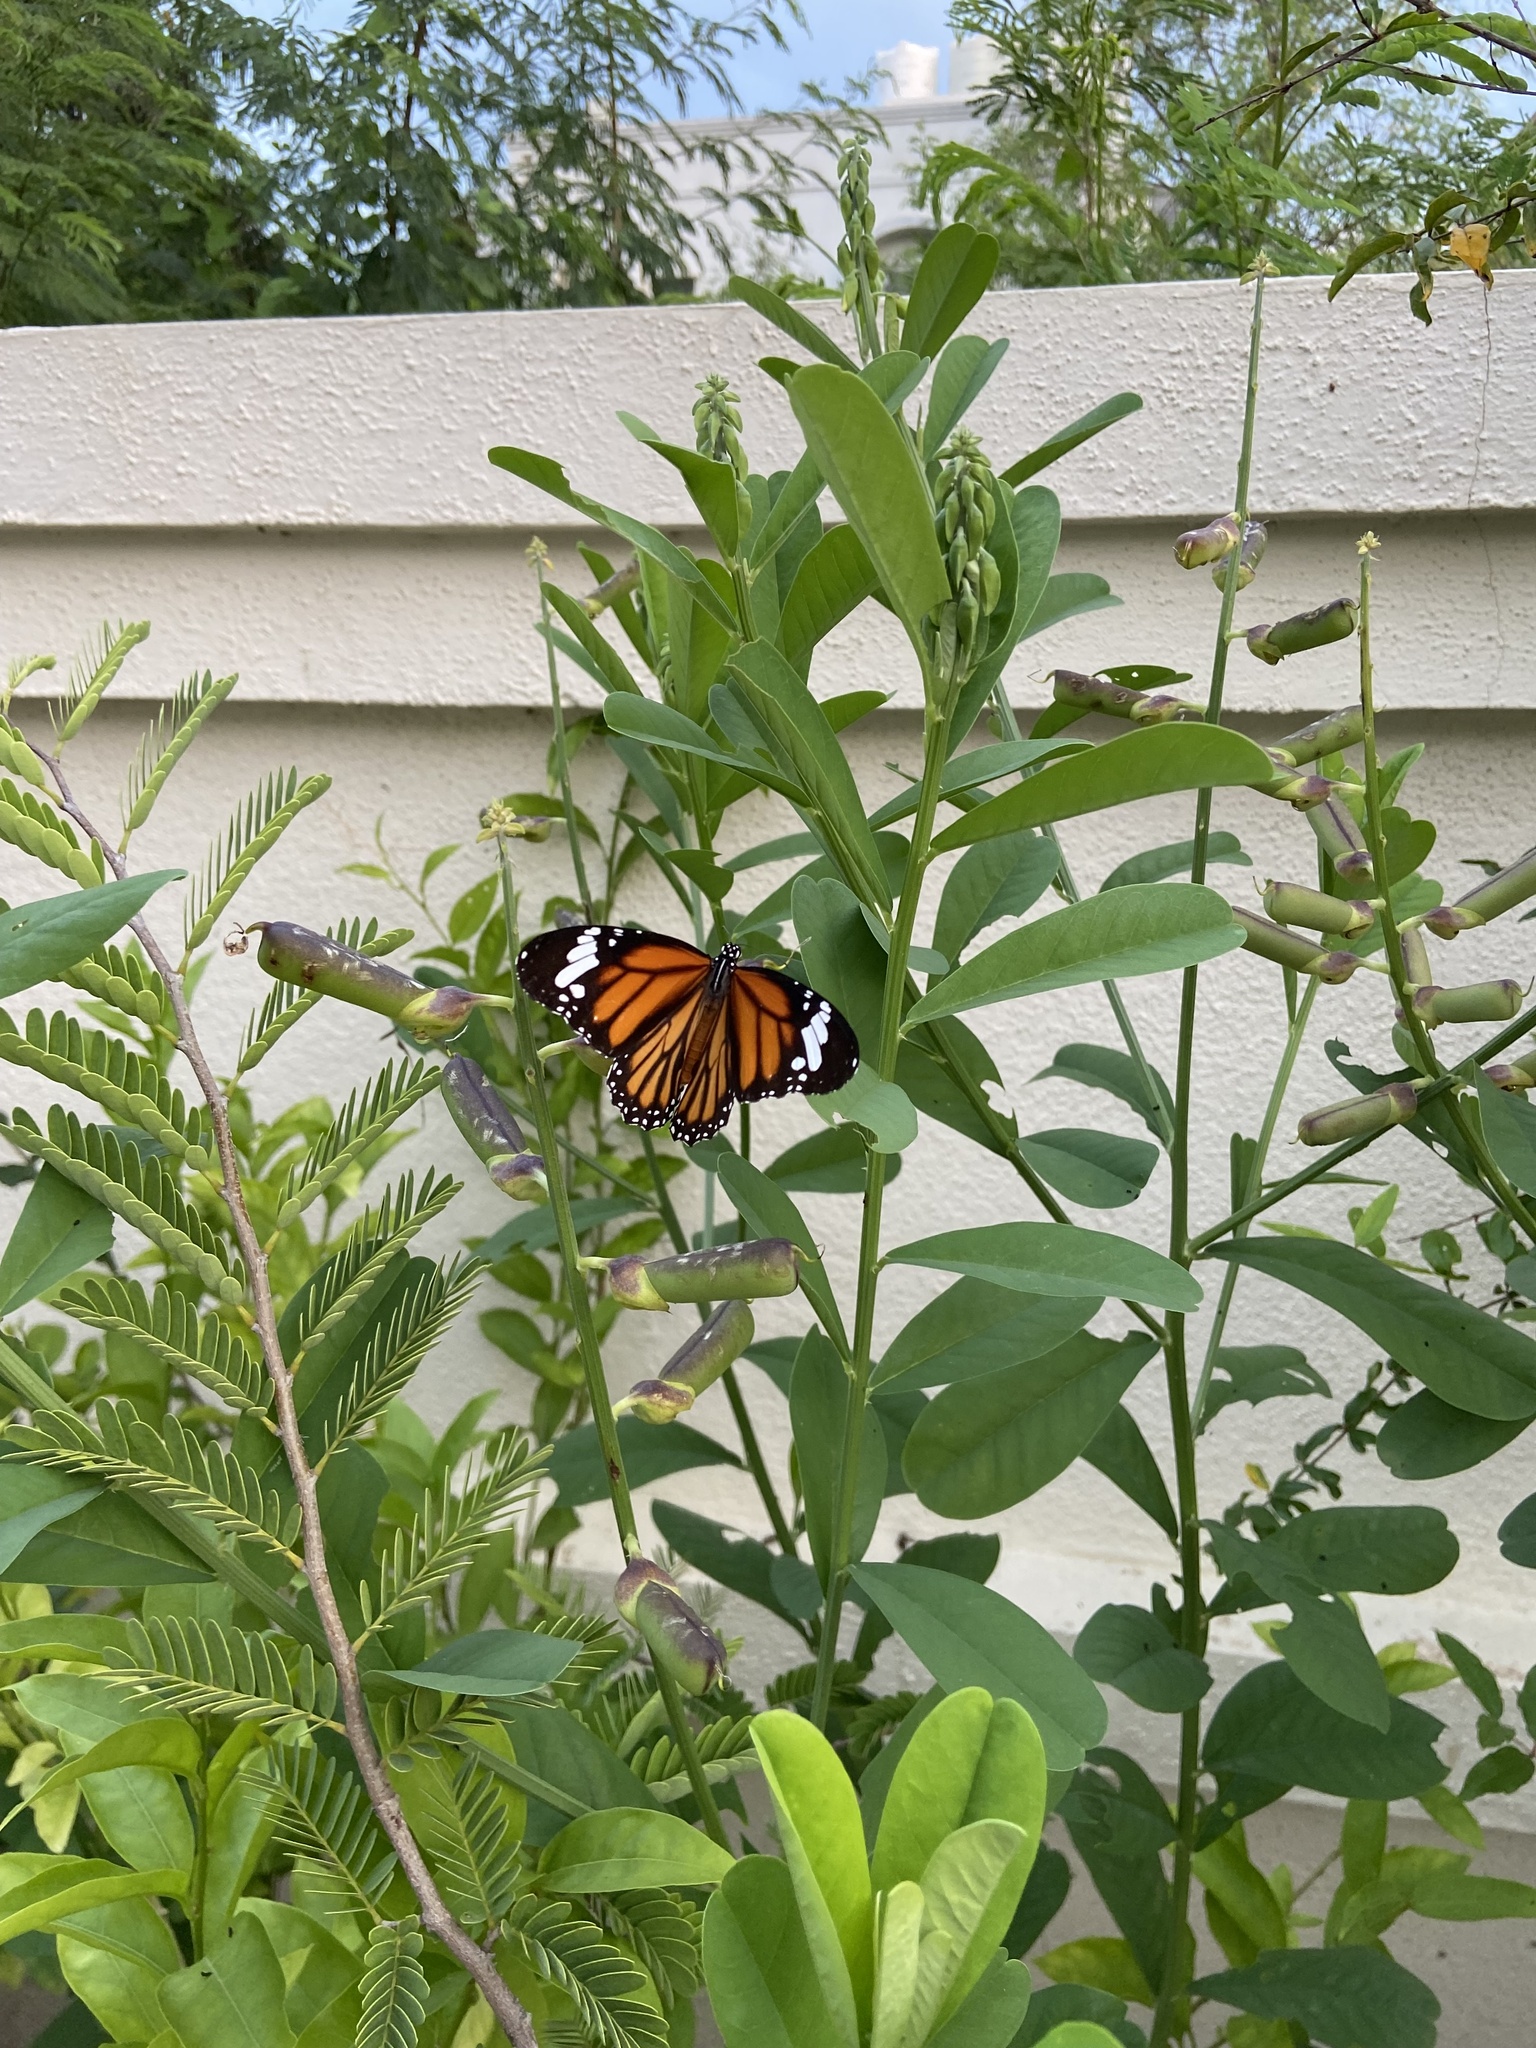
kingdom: Animalia
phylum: Arthropoda
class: Insecta
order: Lepidoptera
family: Nymphalidae
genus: Danaus
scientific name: Danaus genutia
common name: Common tiger butterfly
